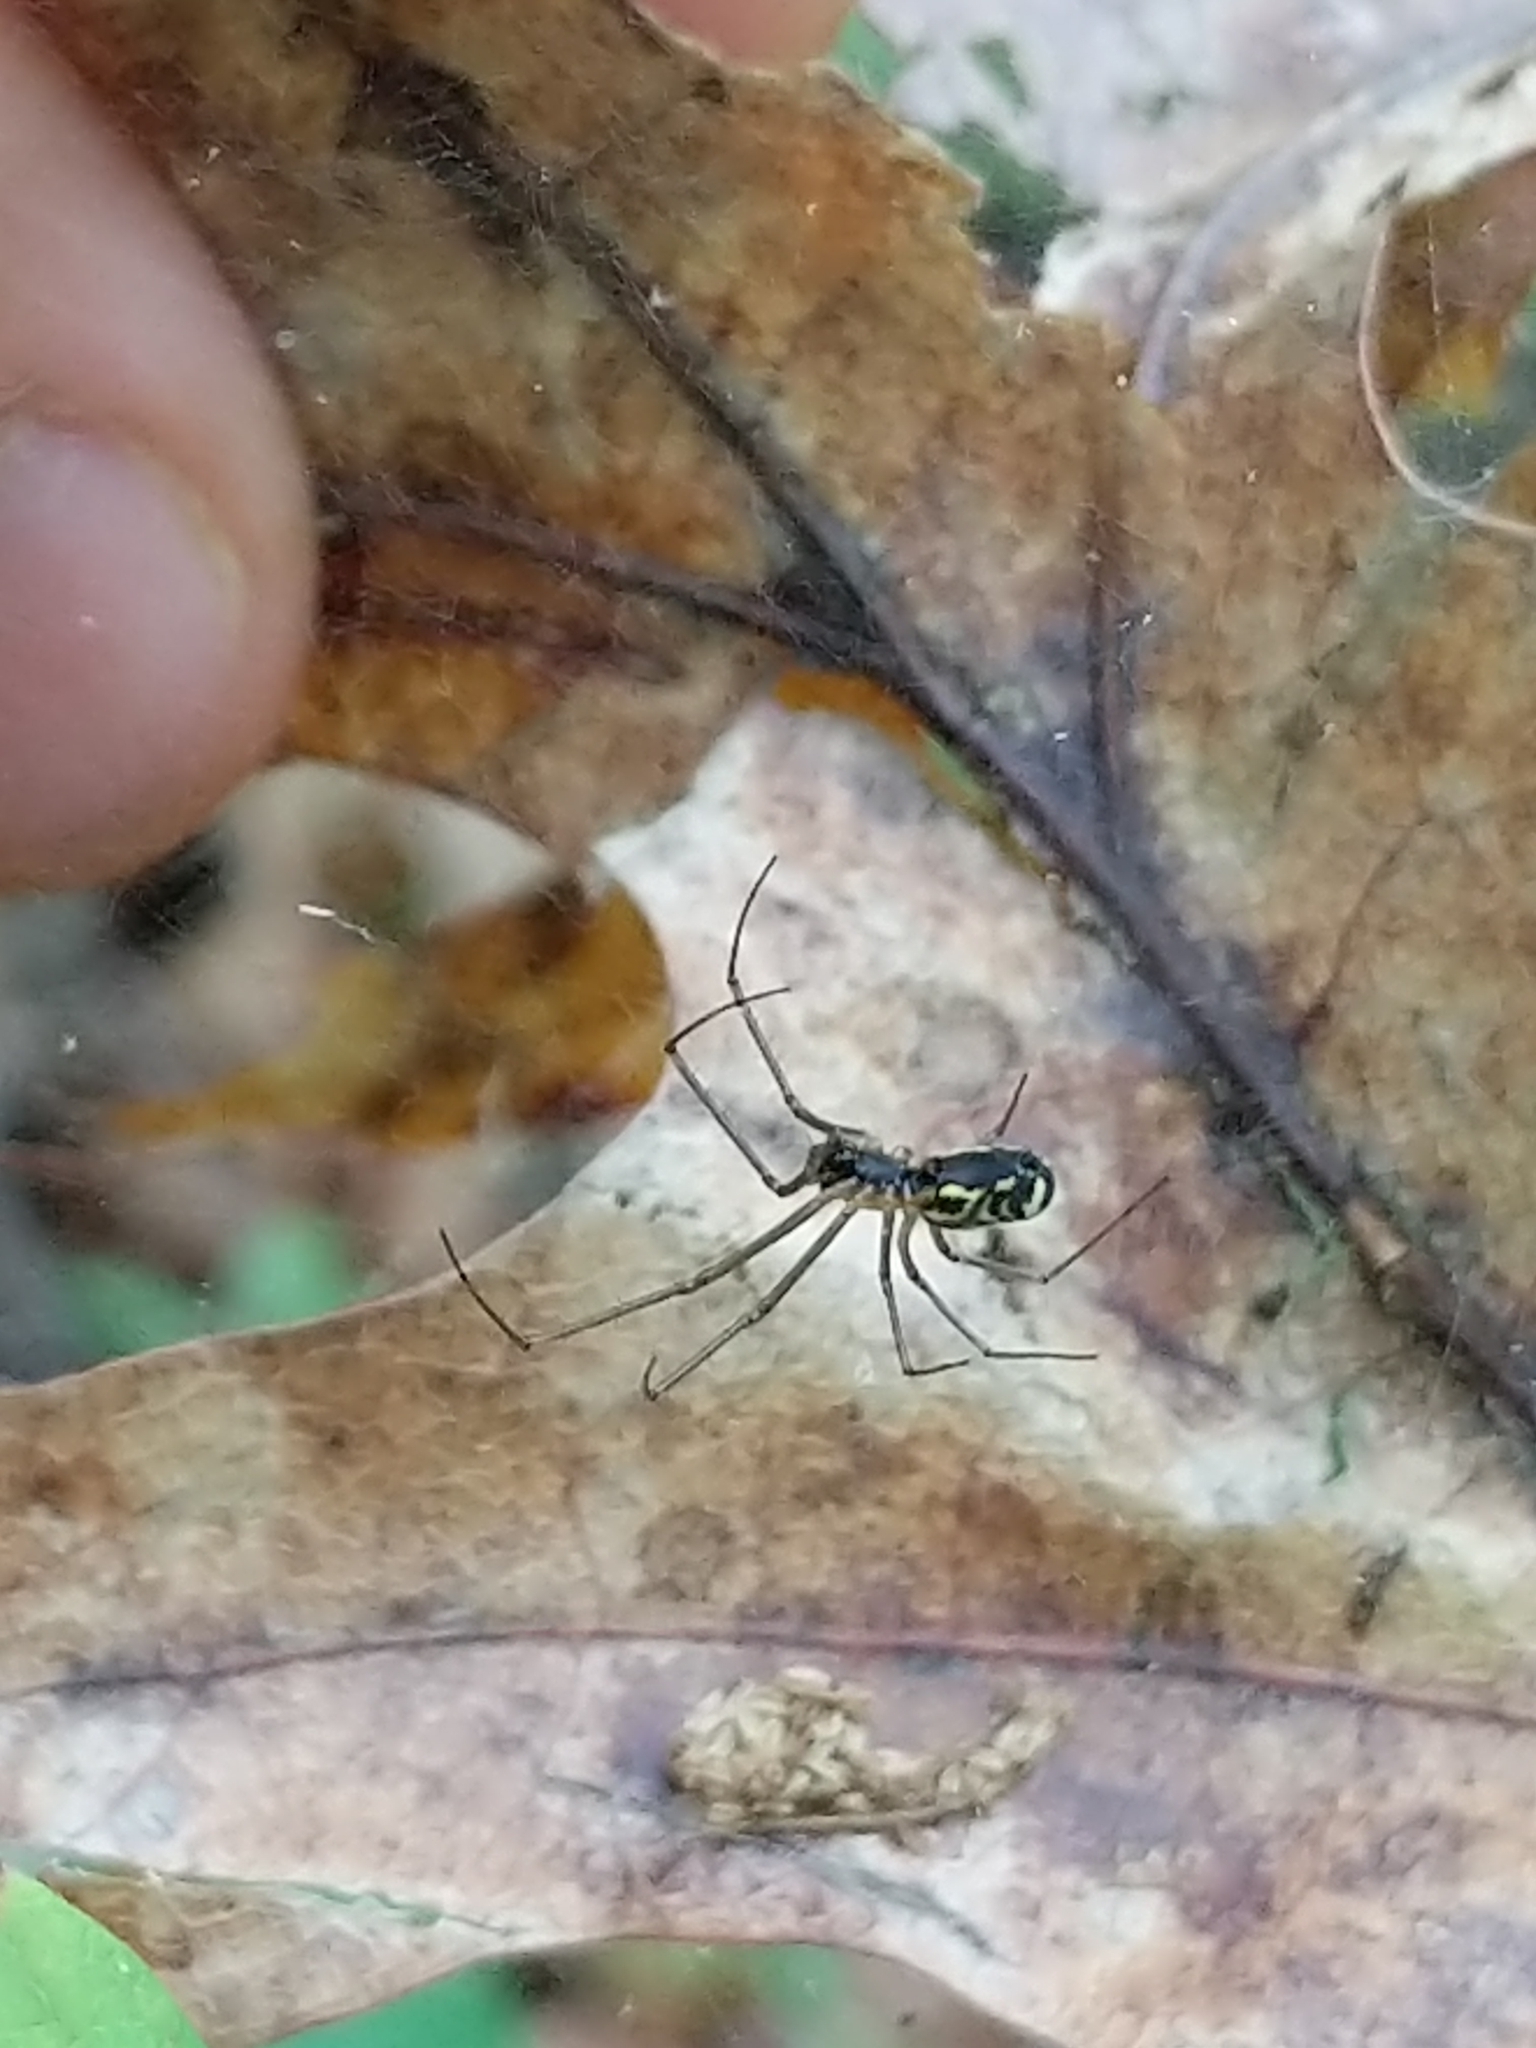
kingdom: Animalia
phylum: Arthropoda
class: Arachnida
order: Araneae
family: Linyphiidae
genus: Neriene
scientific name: Neriene radiata
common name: Filmy dome spider
